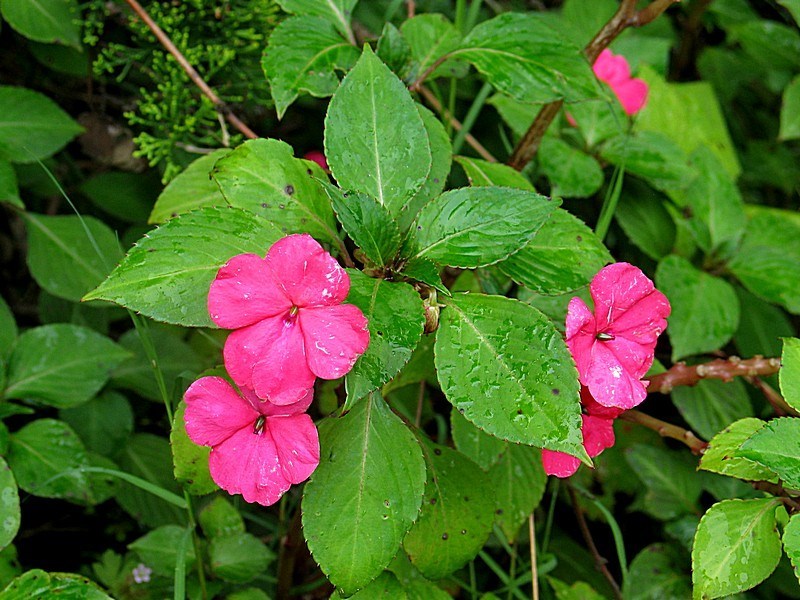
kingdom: Plantae
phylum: Tracheophyta
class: Magnoliopsida
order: Ericales
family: Balsaminaceae
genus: Impatiens
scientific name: Impatiens walleriana
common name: Buzzy lizzy
